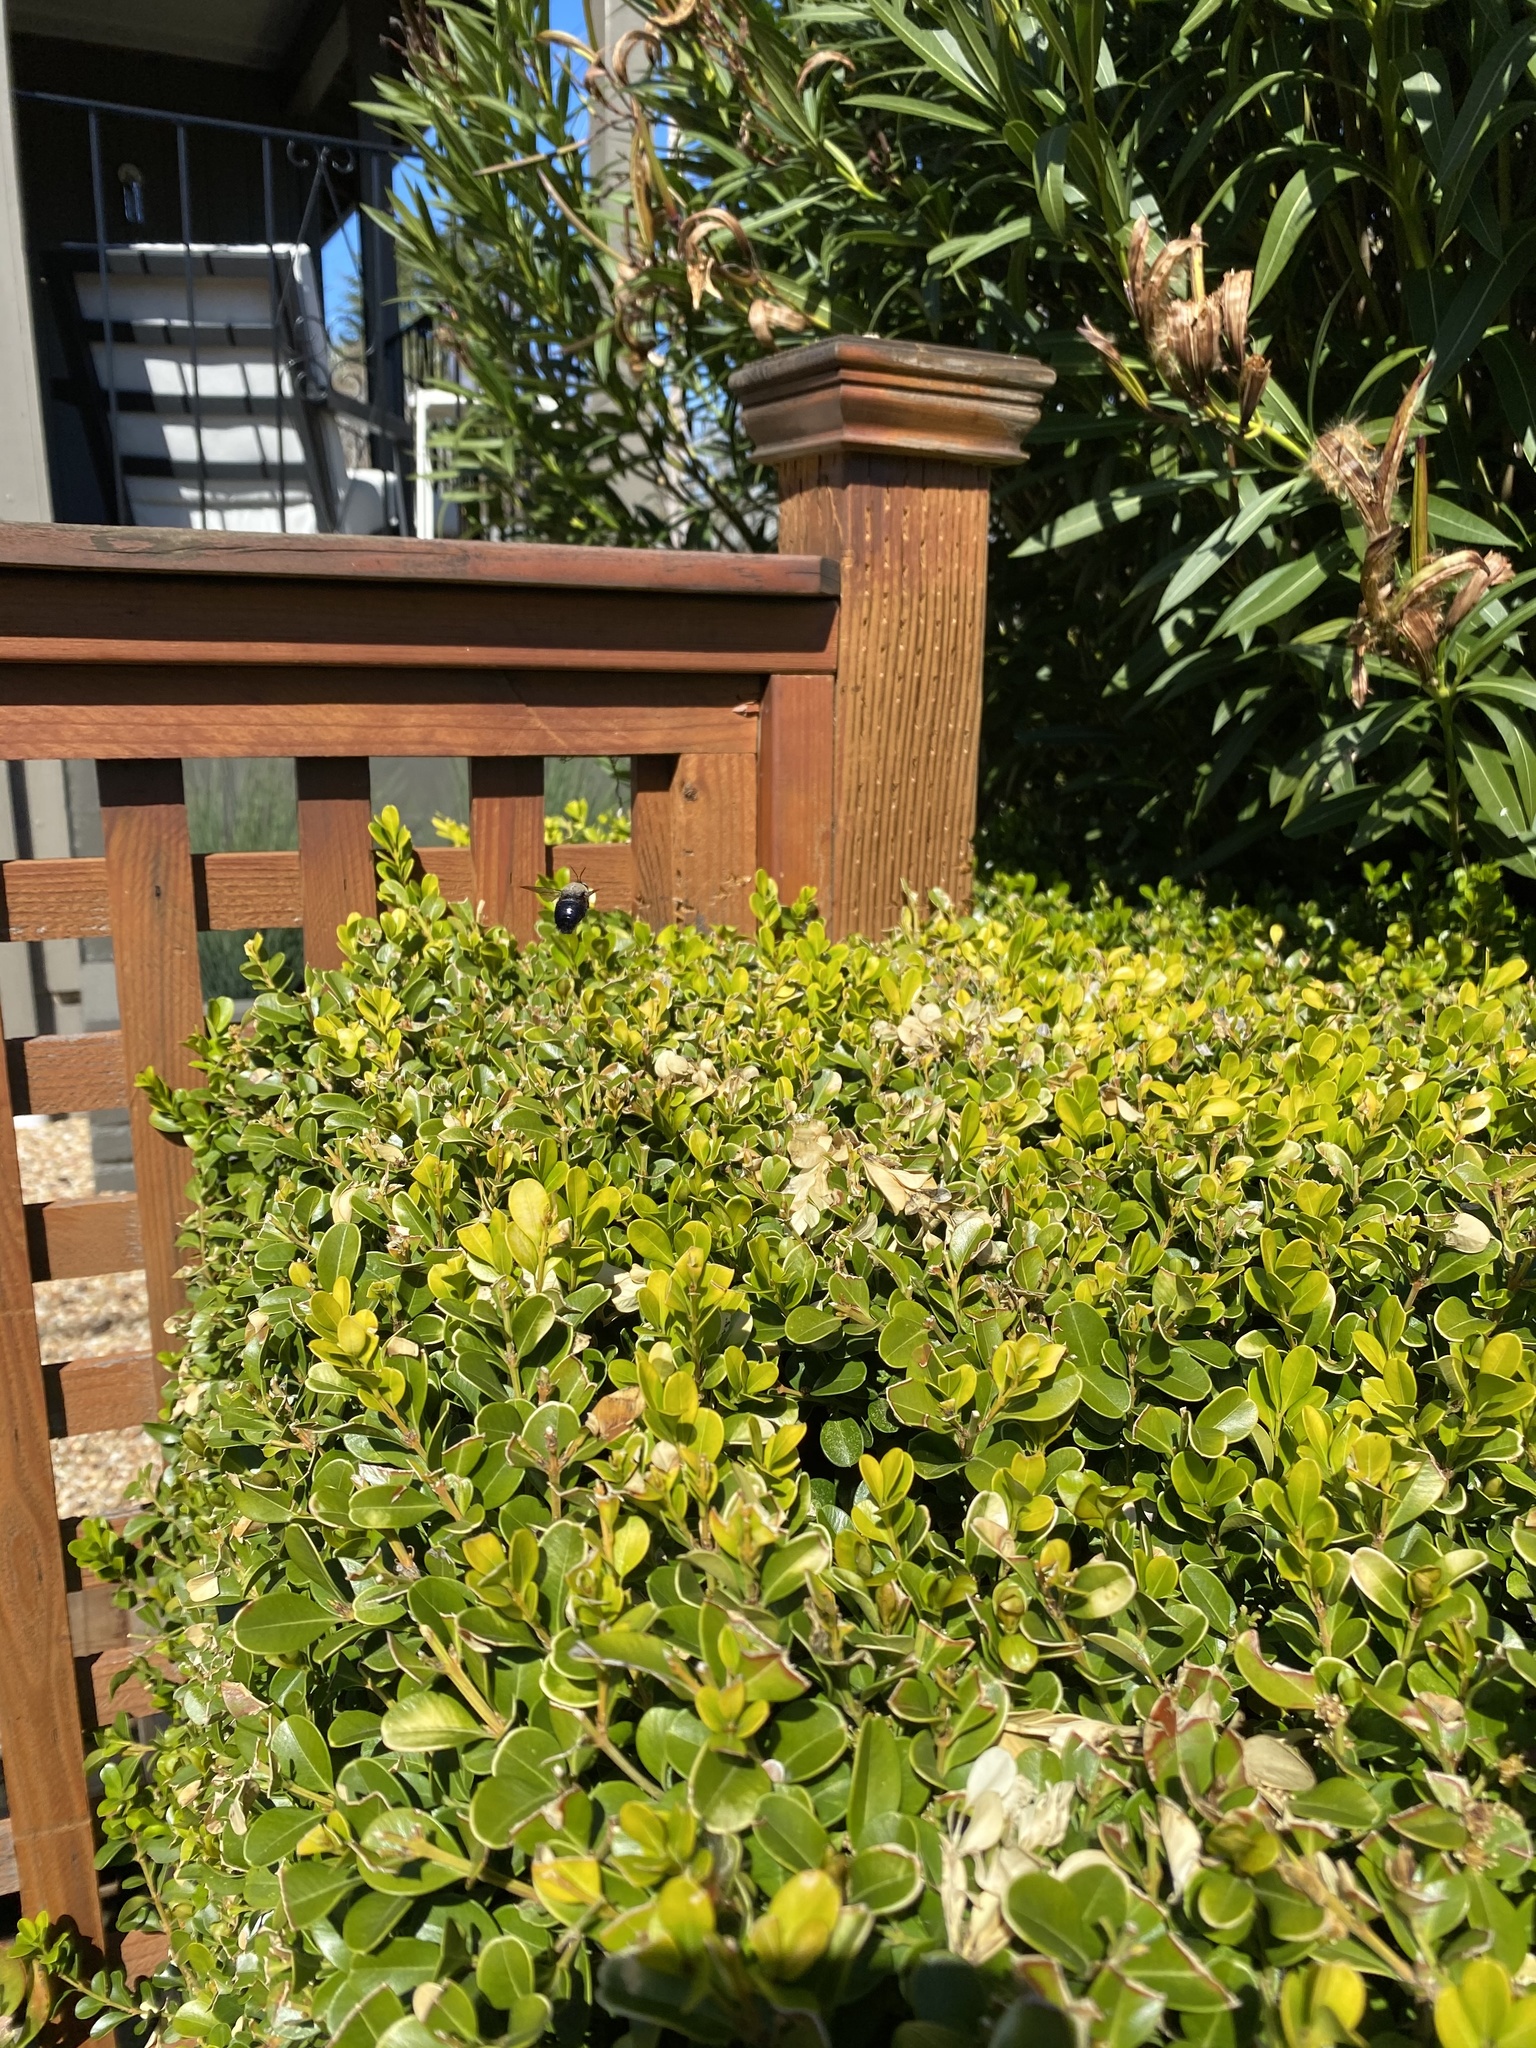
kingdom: Animalia
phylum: Arthropoda
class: Insecta
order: Hymenoptera
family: Apidae
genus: Xylocopa
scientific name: Xylocopa tabaniformis
